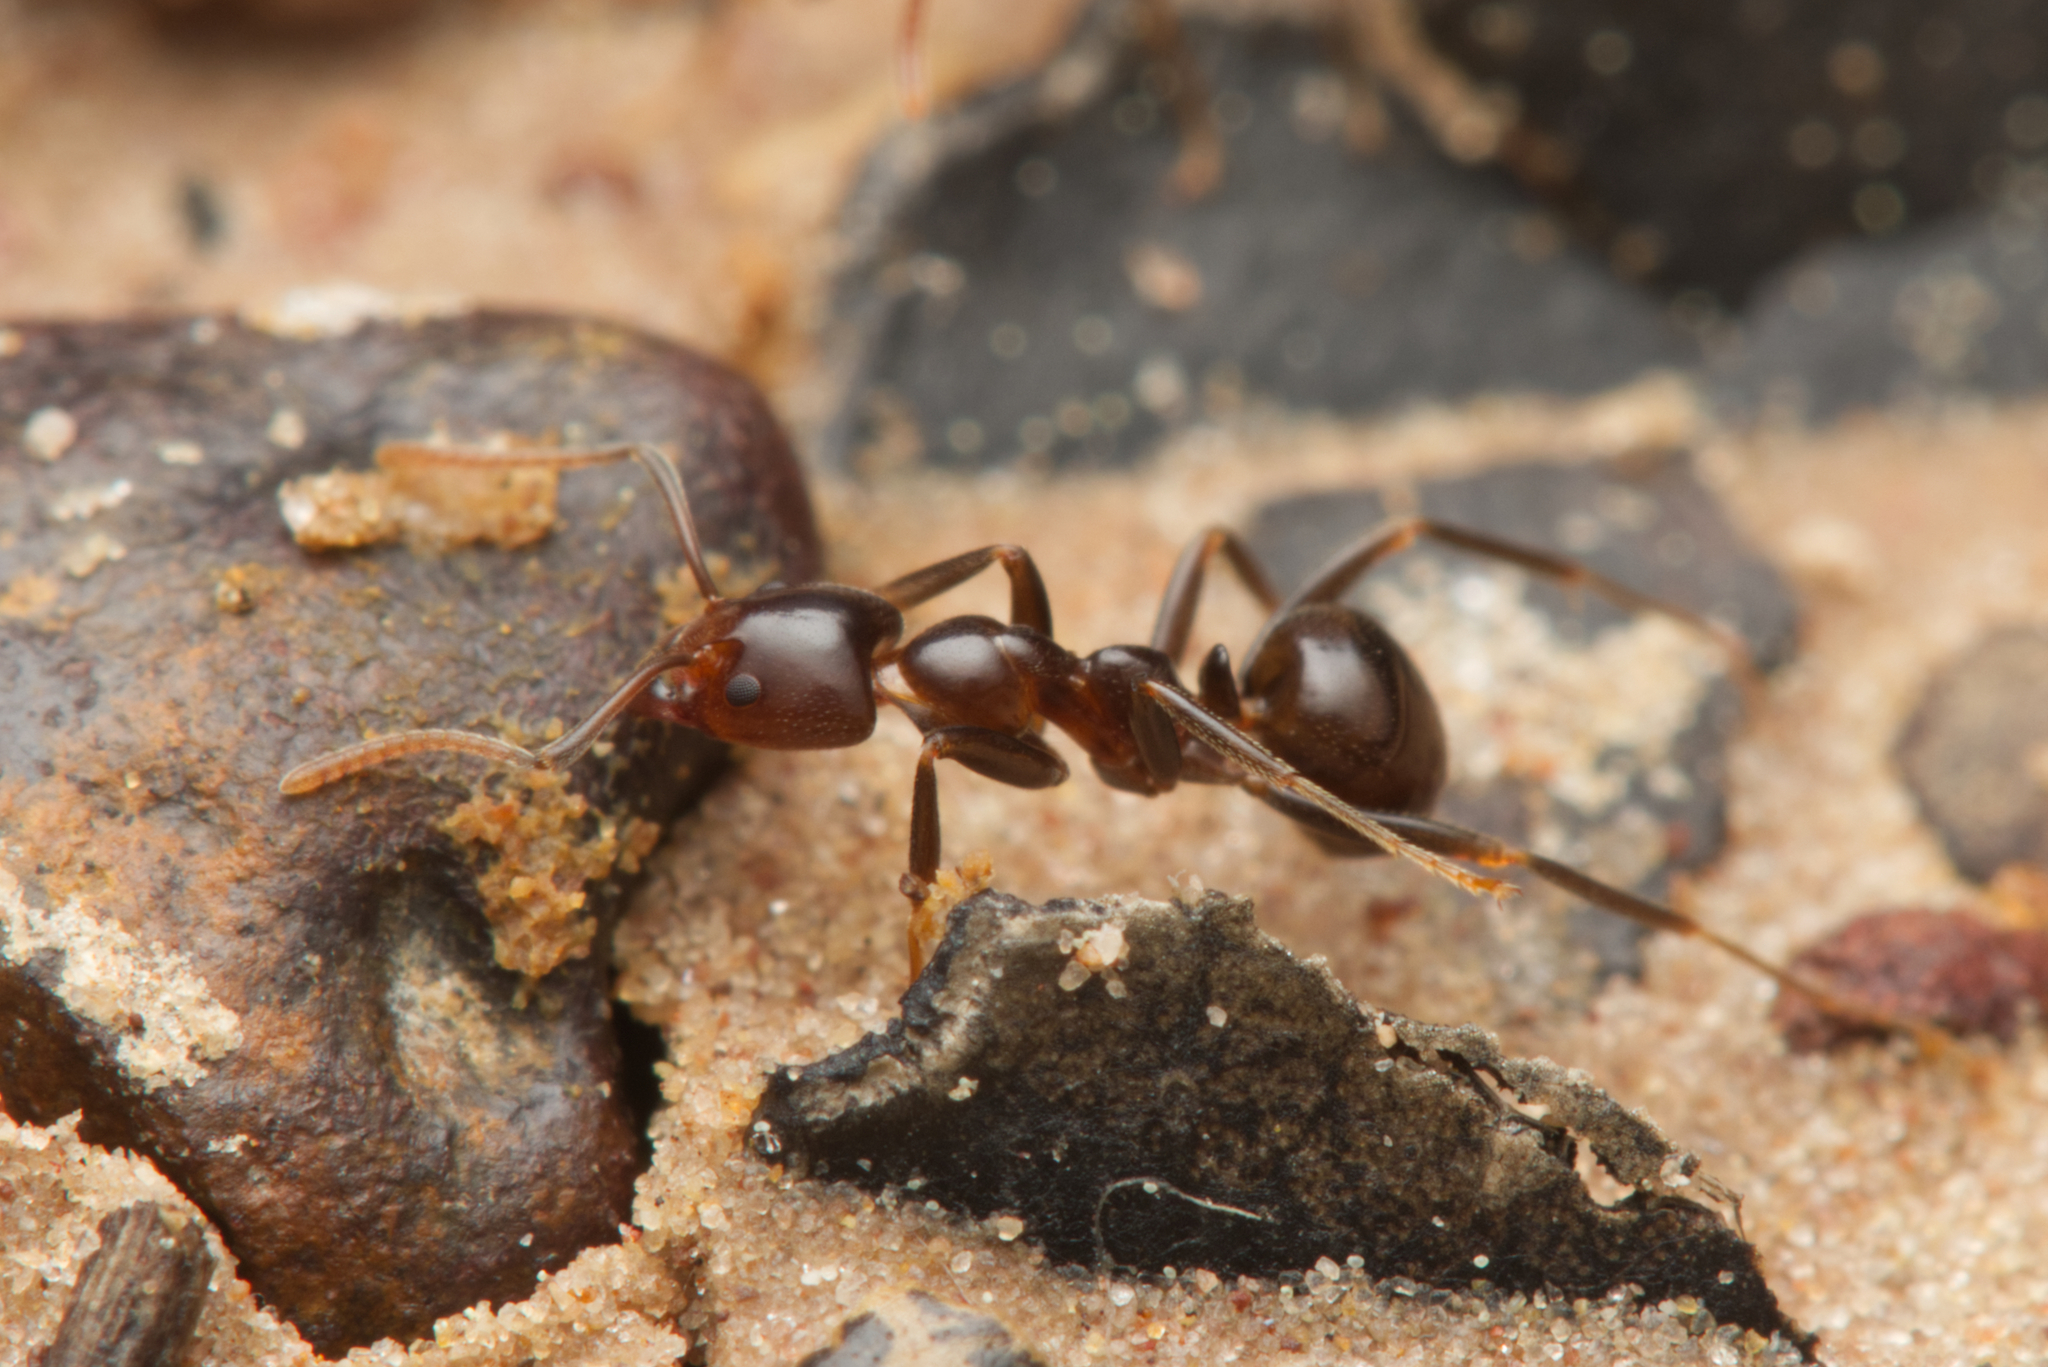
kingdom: Animalia
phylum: Arthropoda
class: Insecta
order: Hymenoptera
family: Formicidae
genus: Papyrius
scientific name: Papyrius nitidus
